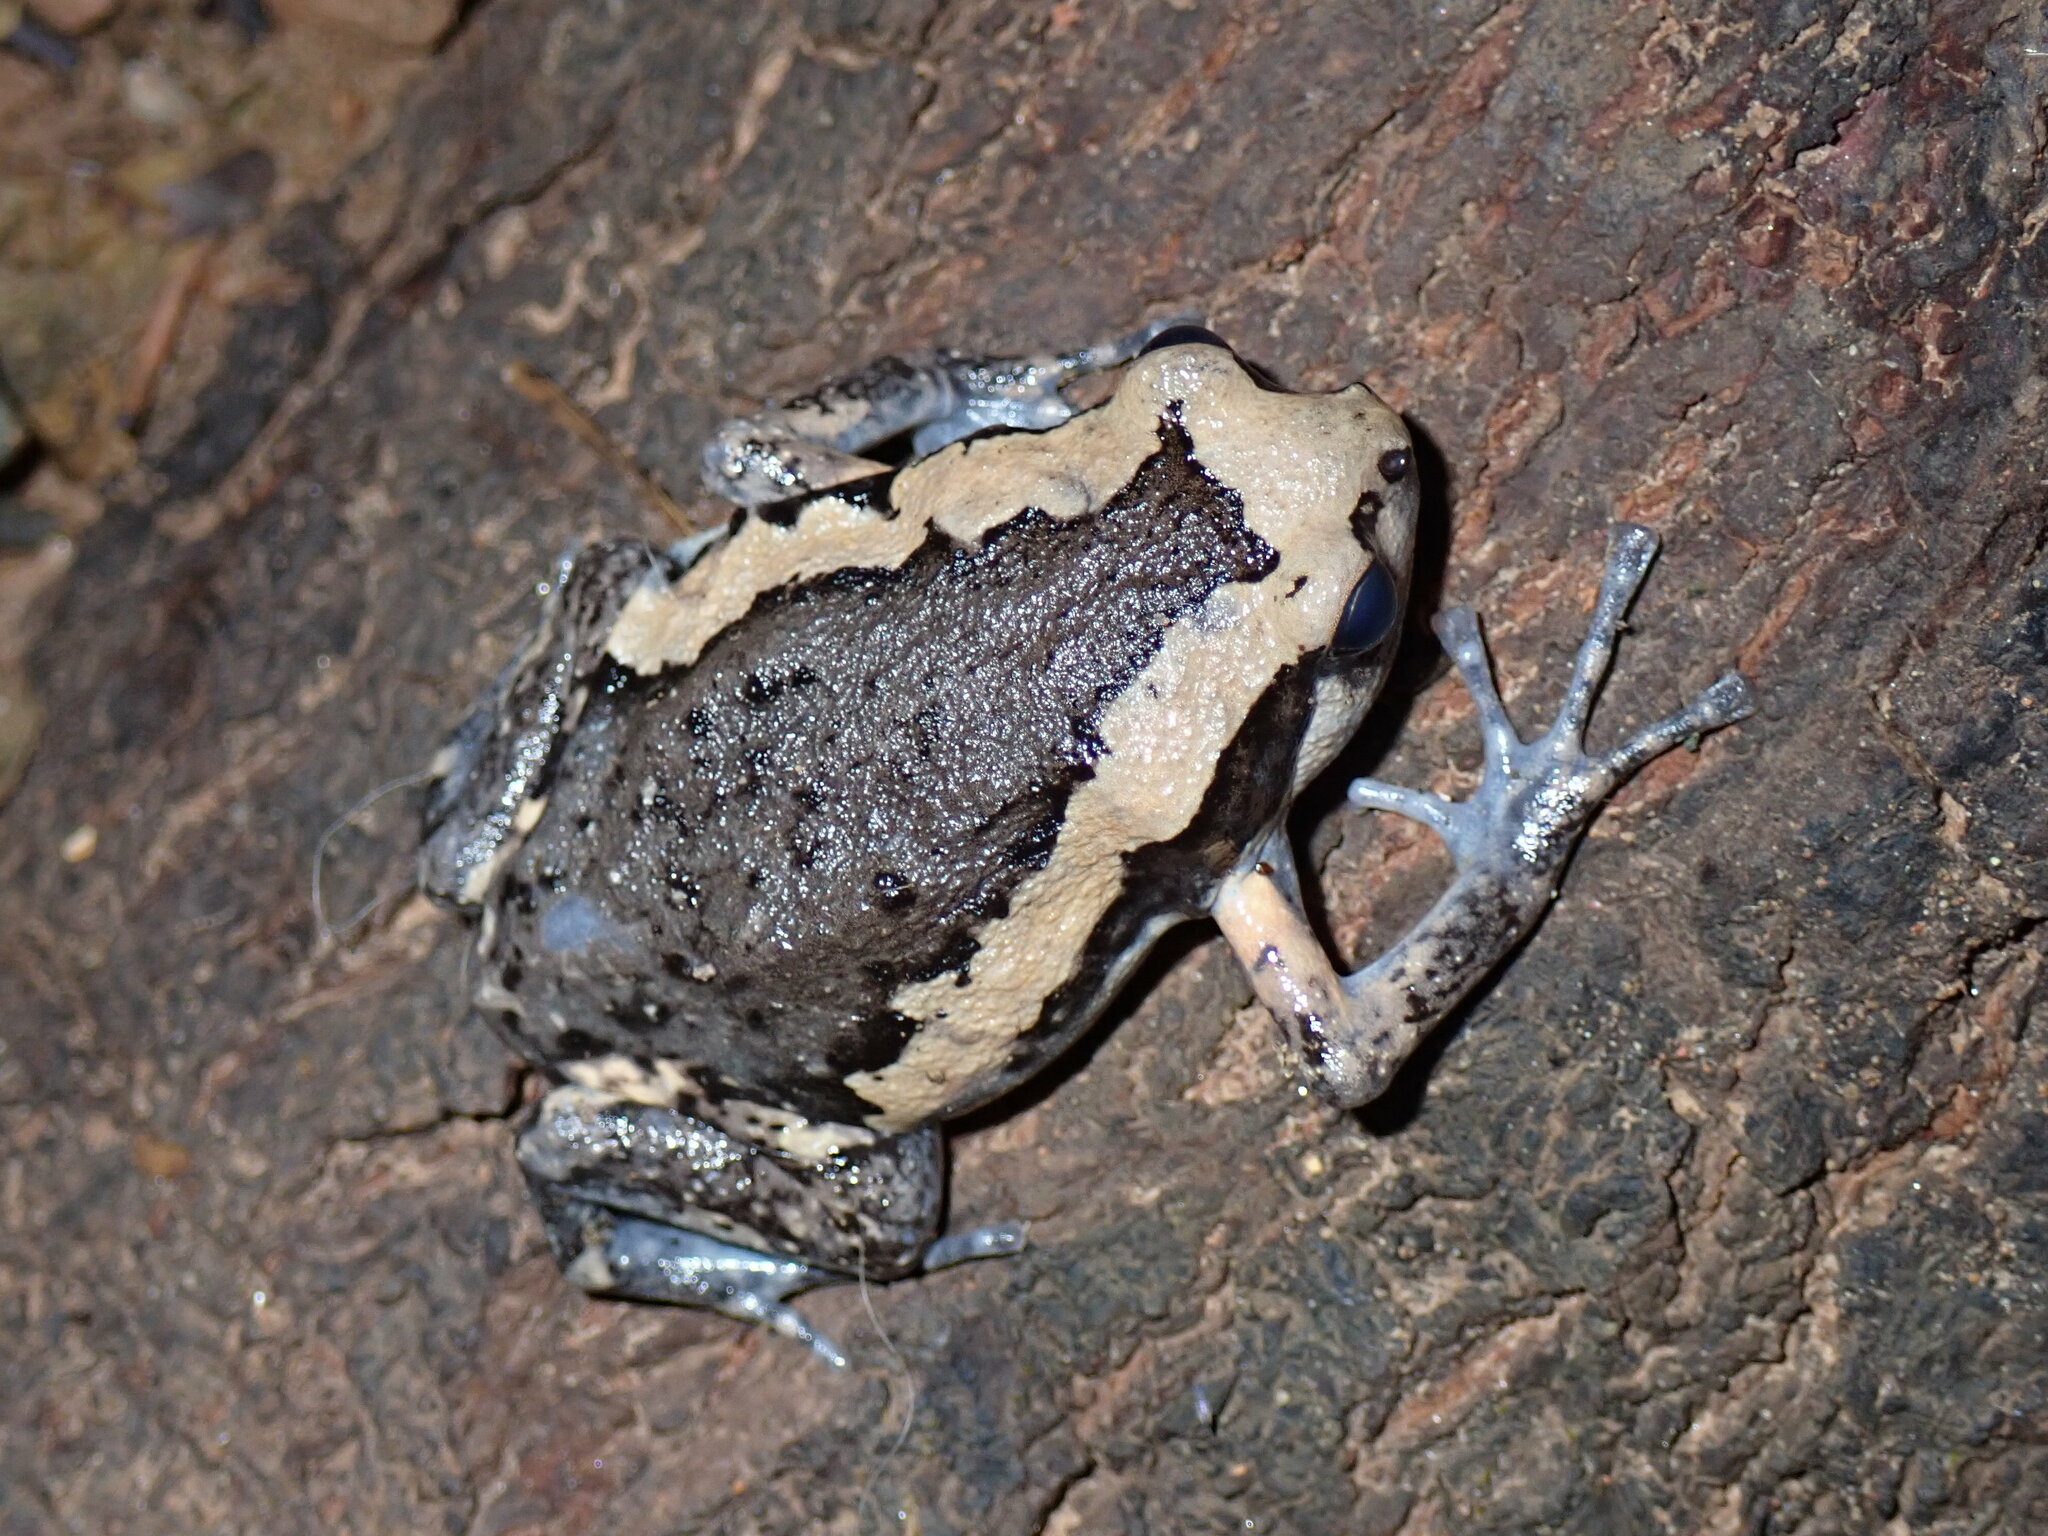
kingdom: Animalia
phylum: Chordata
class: Amphibia
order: Anura
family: Microhylidae
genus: Kaloula
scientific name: Kaloula pulchra
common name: Common,banded bullfrog
